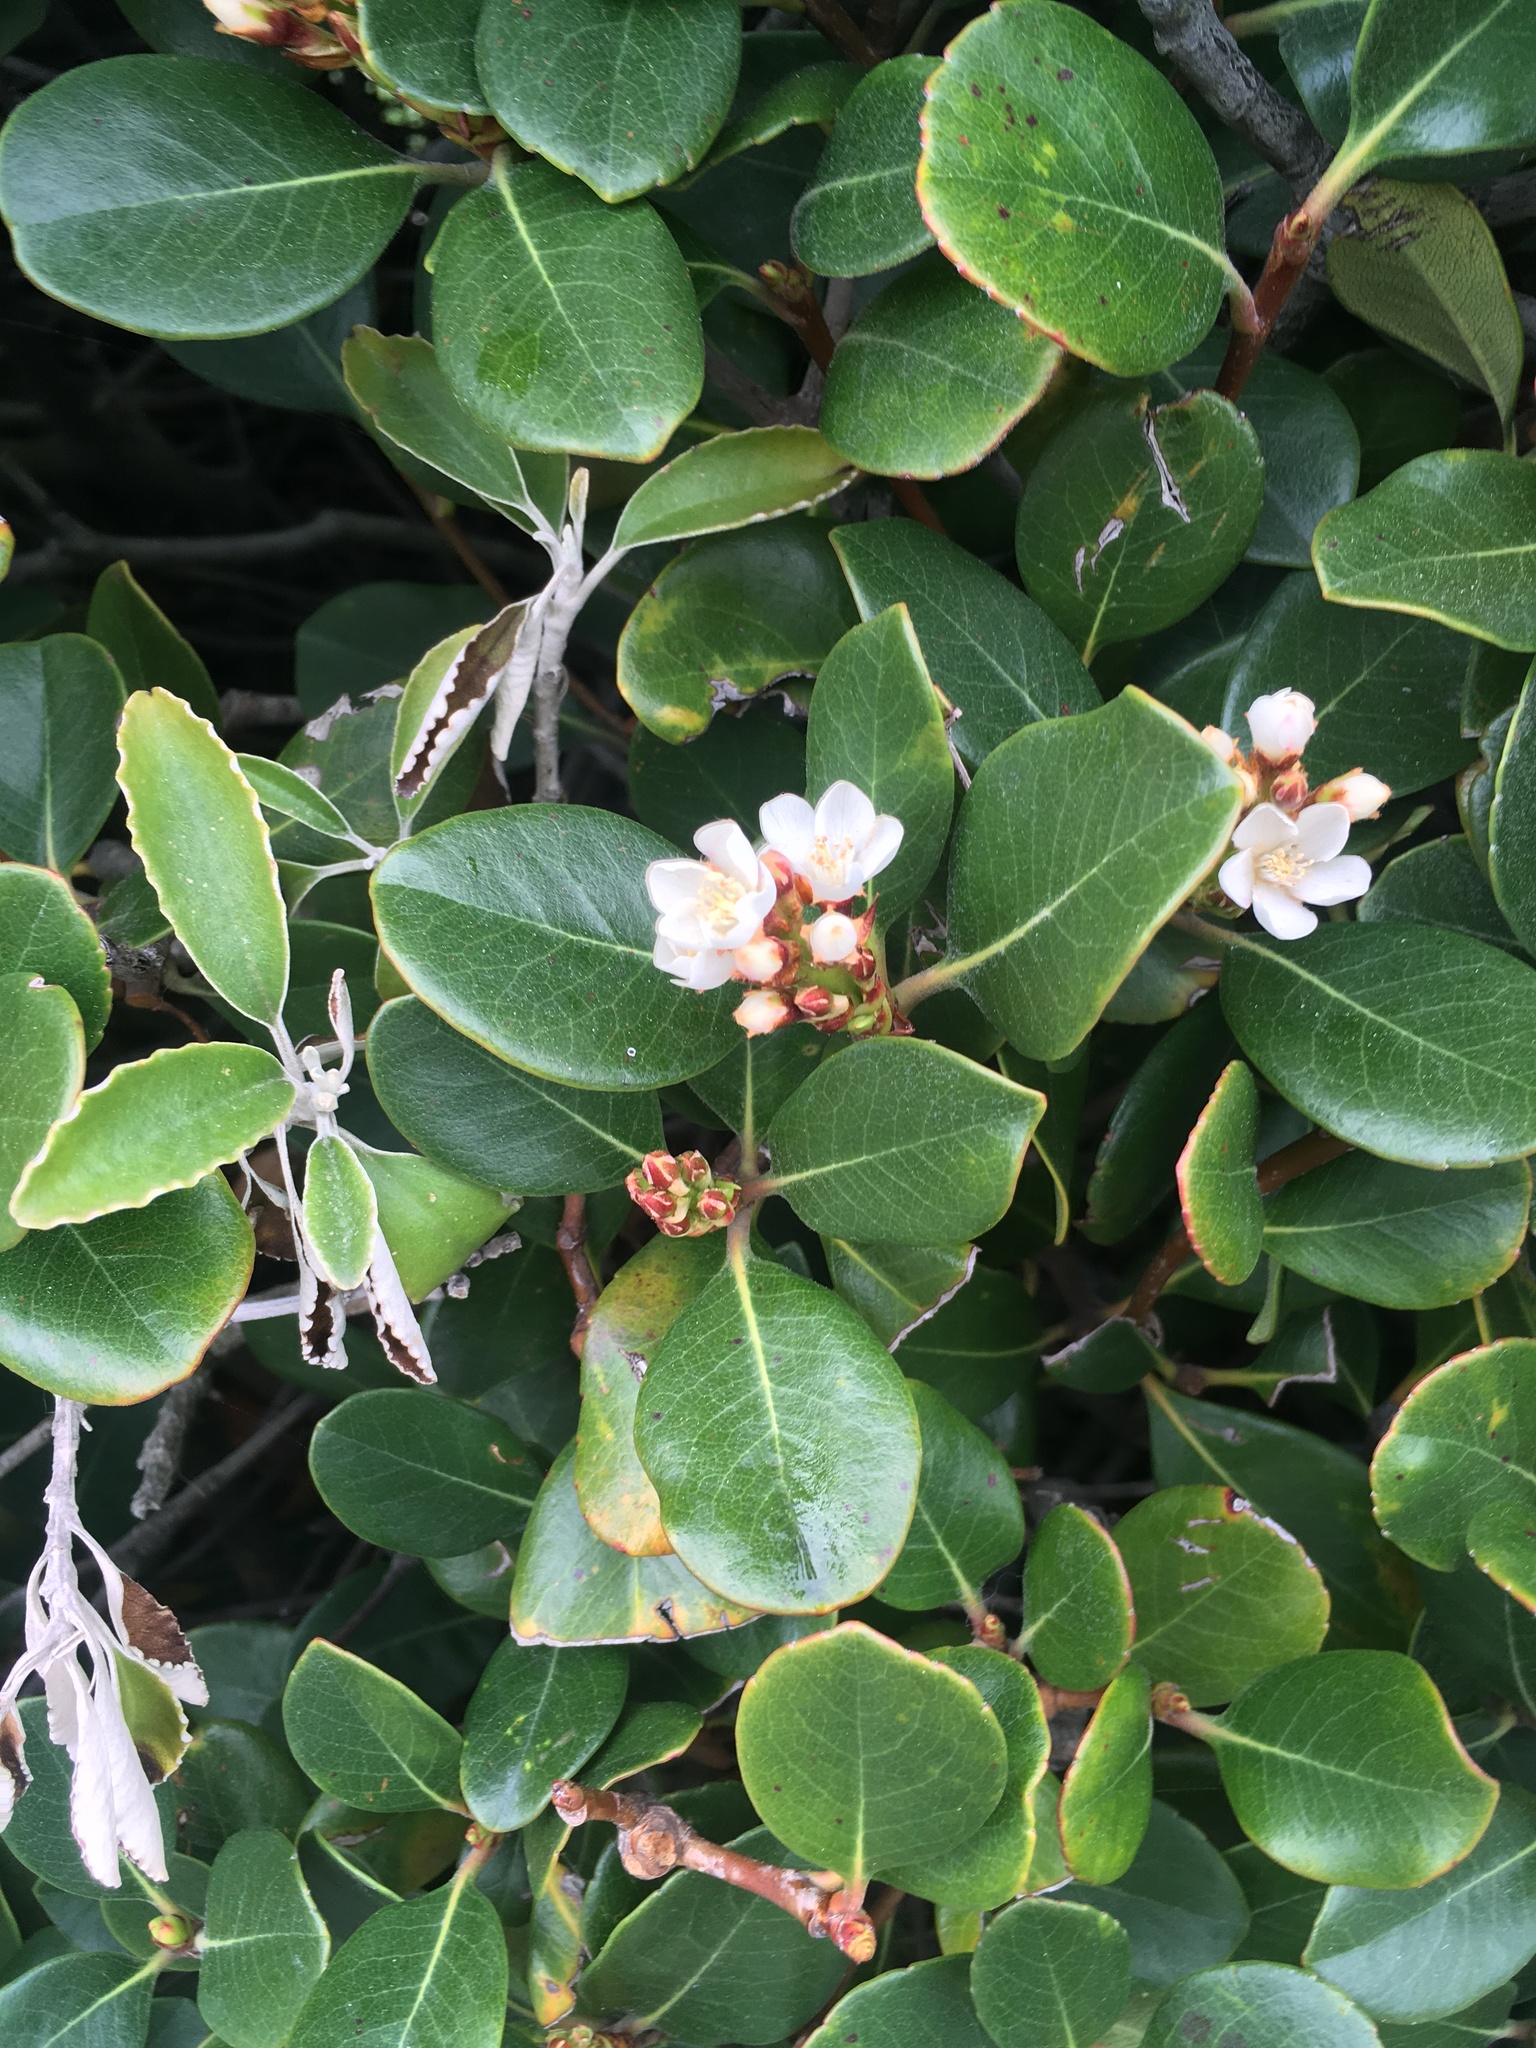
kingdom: Plantae
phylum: Tracheophyta
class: Magnoliopsida
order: Rosales
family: Rosaceae
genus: Rhaphiolepis
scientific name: Rhaphiolepis indica
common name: India-hawthorn
